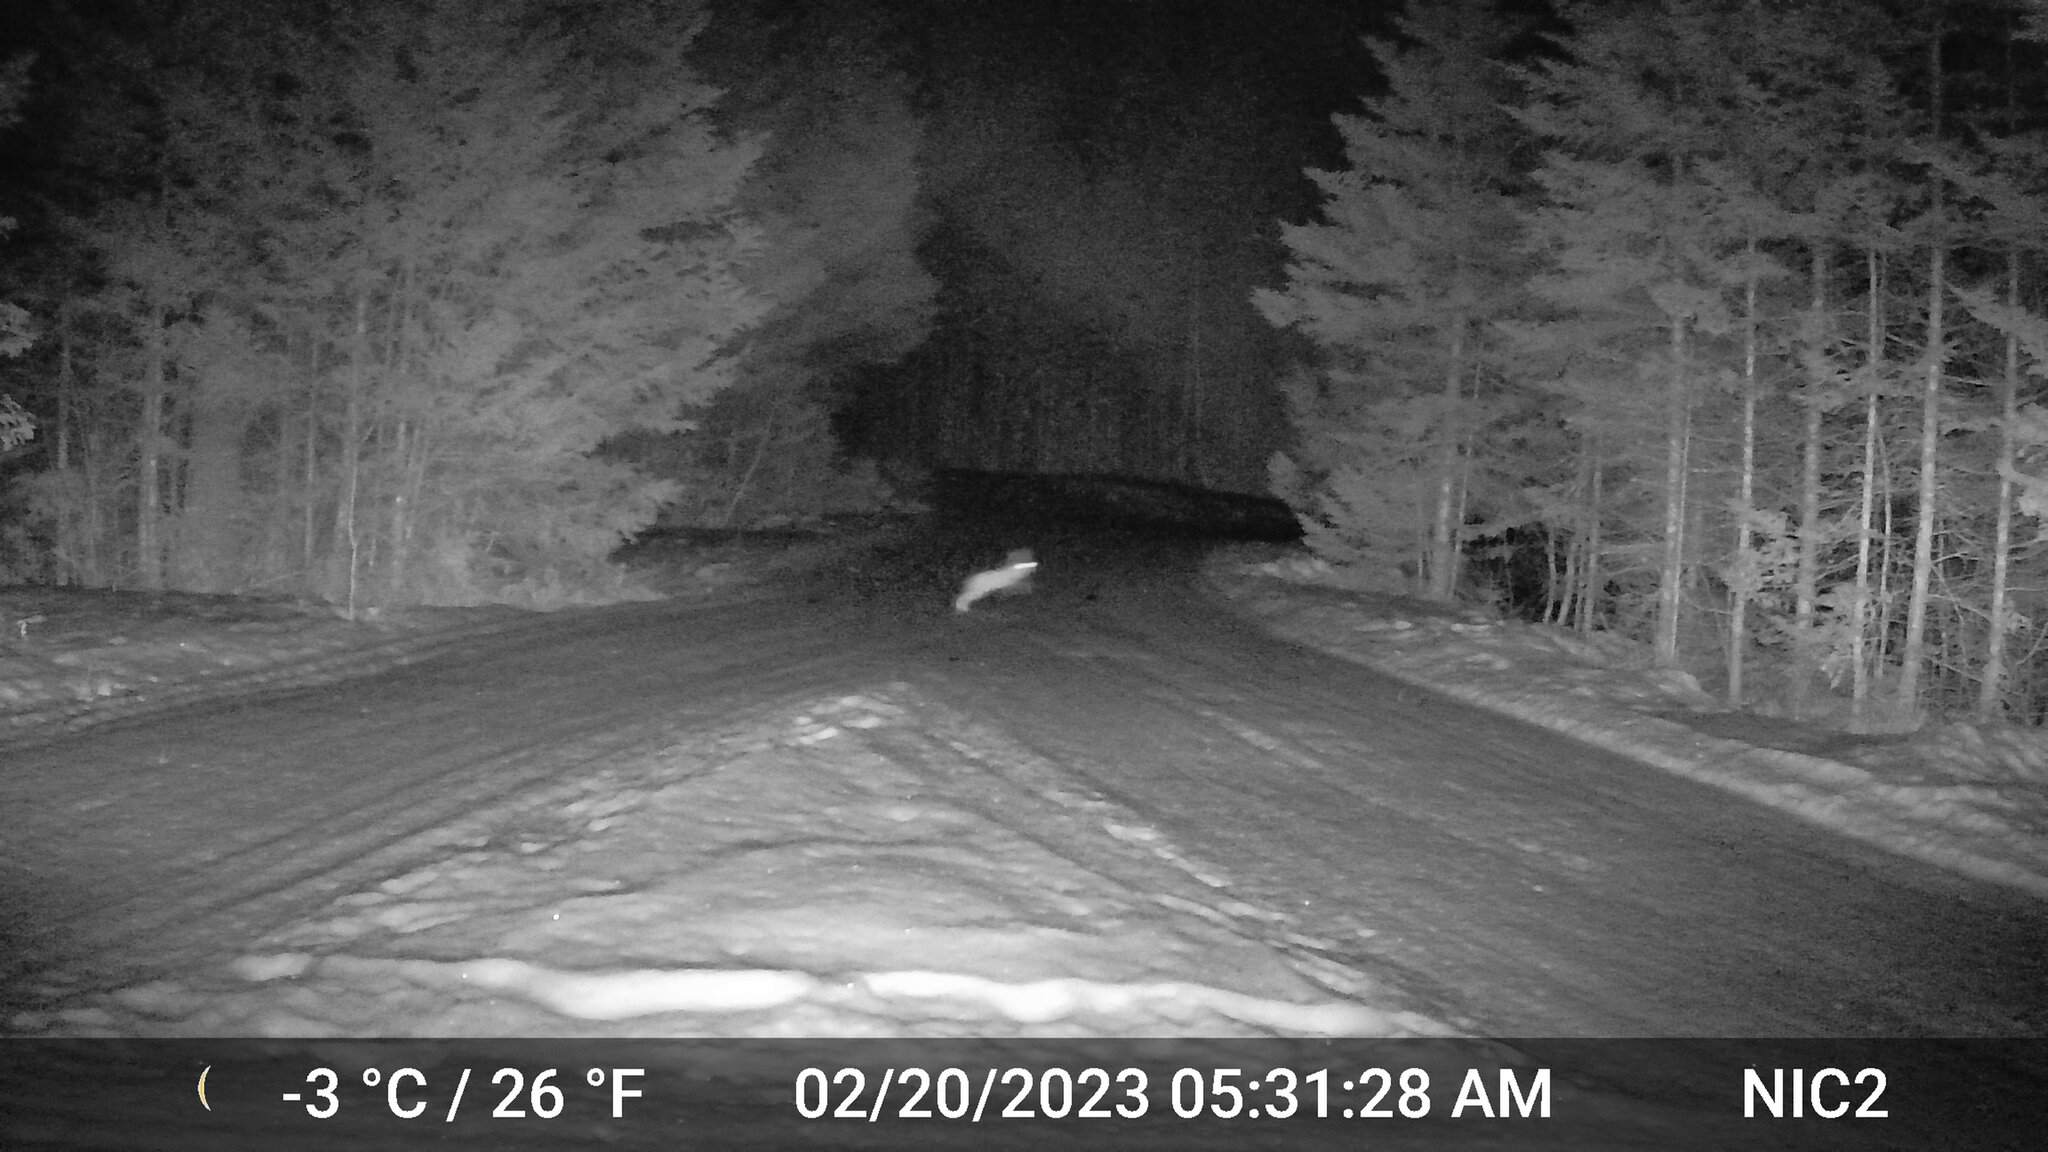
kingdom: Animalia
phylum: Chordata
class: Mammalia
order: Lagomorpha
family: Leporidae
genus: Lepus
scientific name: Lepus americanus
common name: Snowshoe hare
